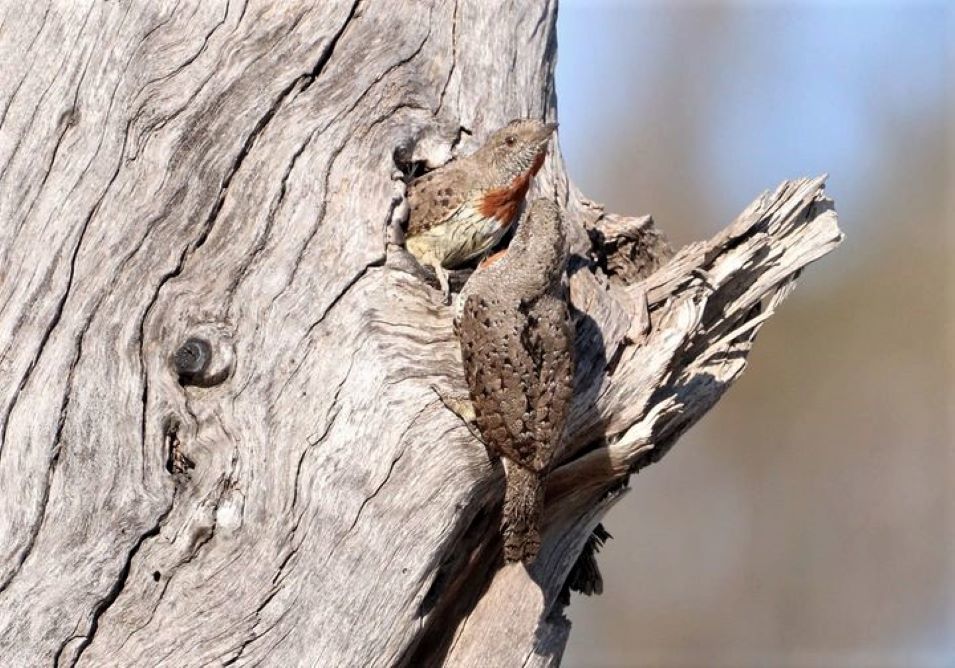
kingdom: Animalia
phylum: Chordata
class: Aves
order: Piciformes
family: Picidae
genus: Jynx
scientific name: Jynx ruficollis
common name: Red-throated wryneck
